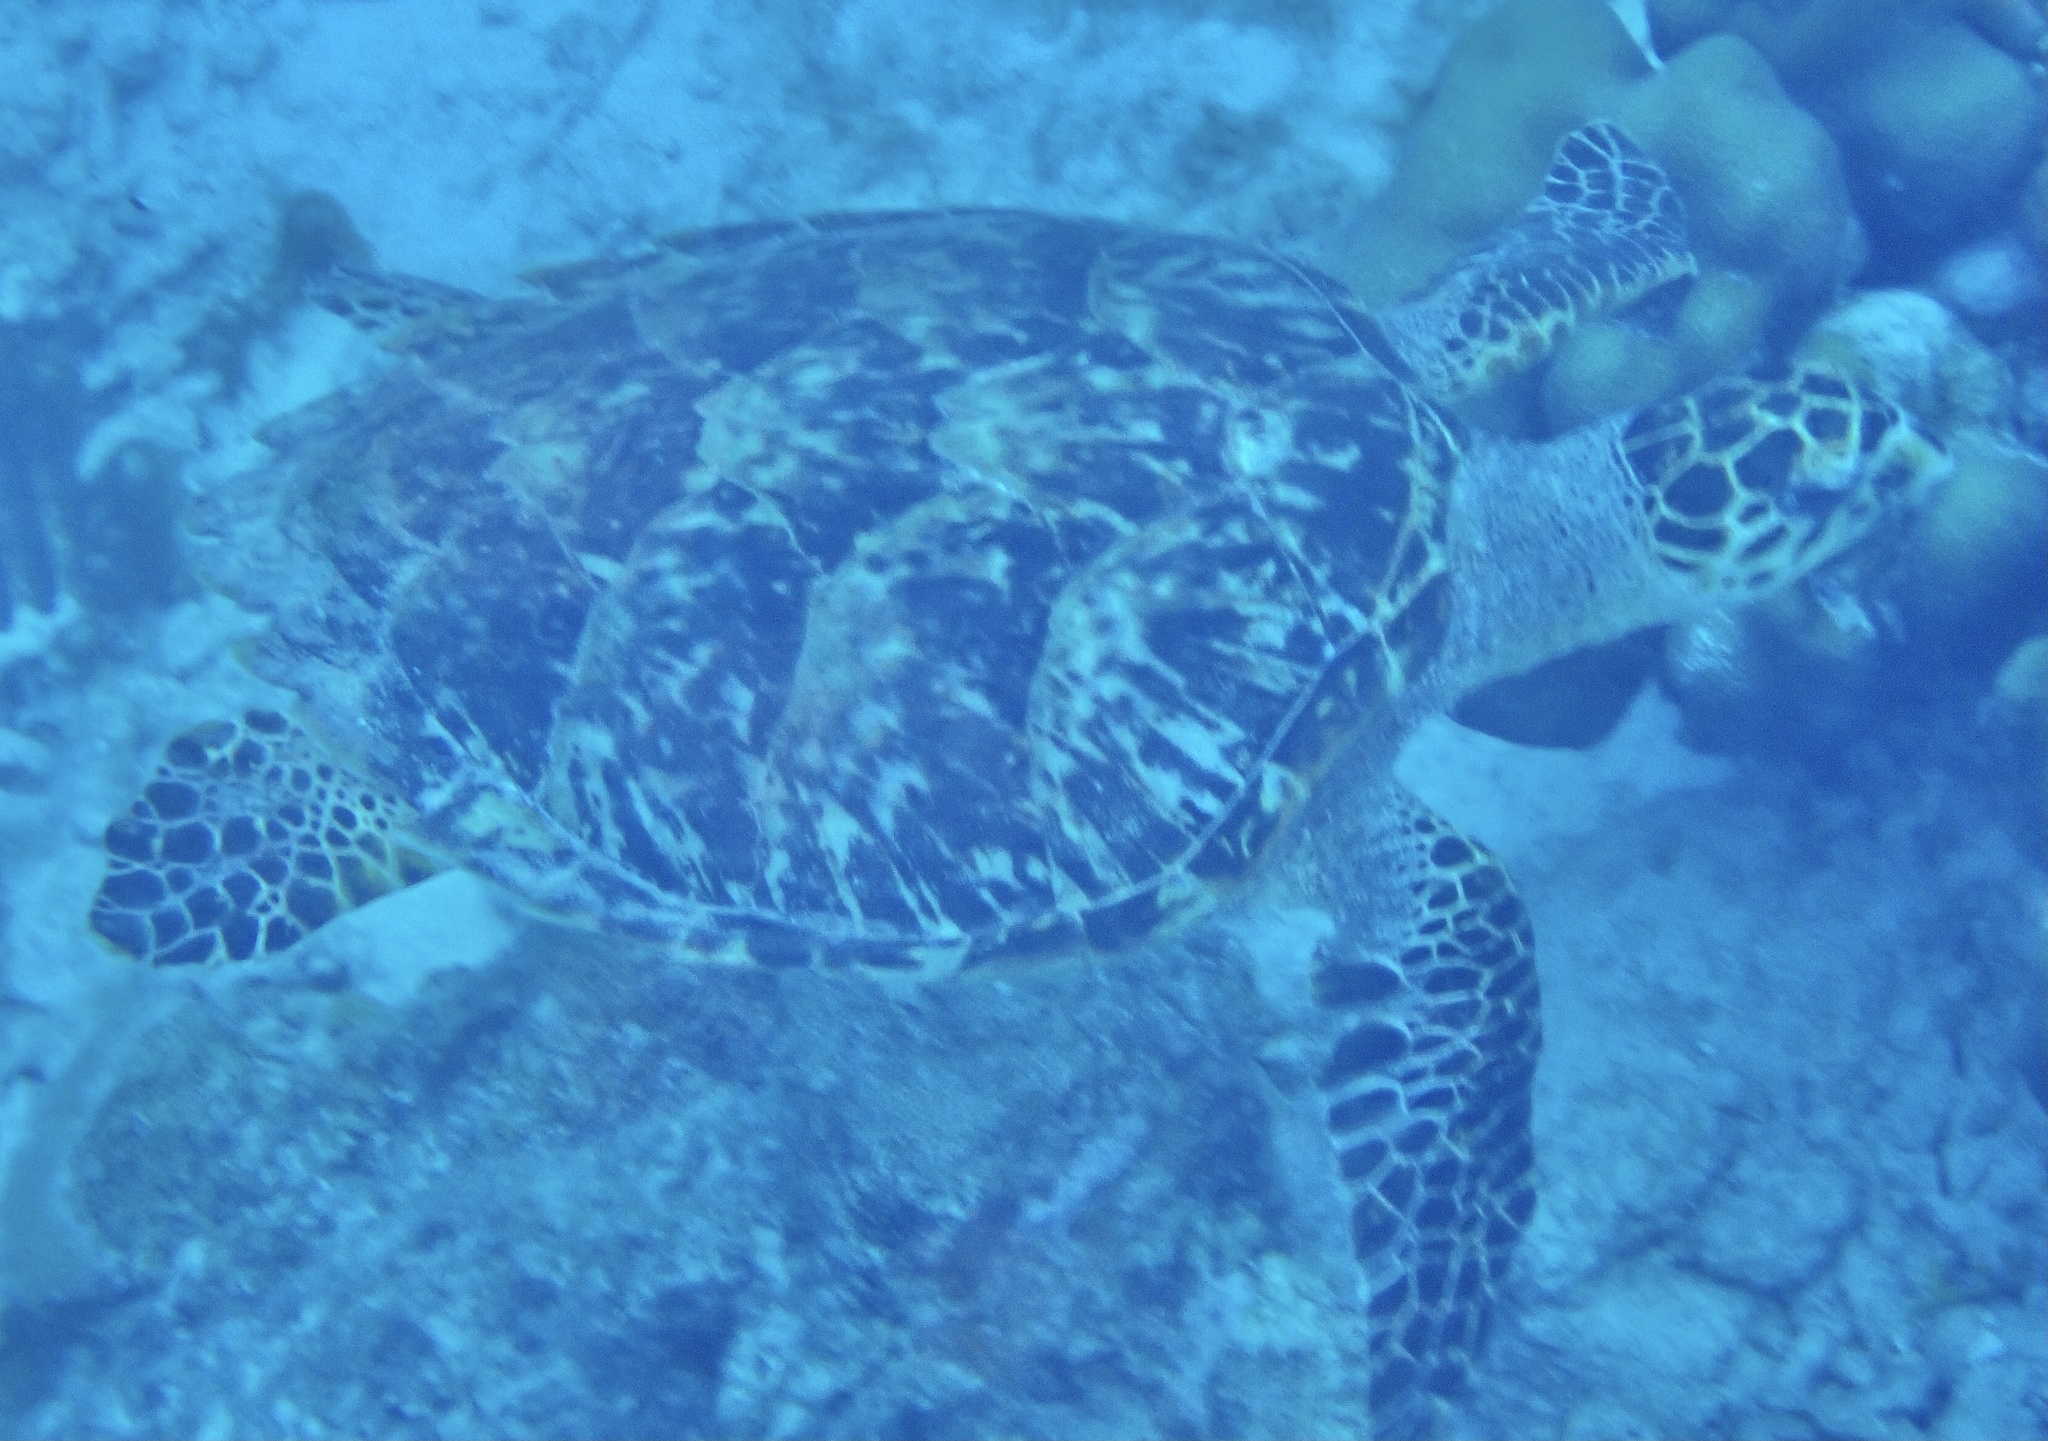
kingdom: Animalia
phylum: Chordata
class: Testudines
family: Cheloniidae
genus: Eretmochelys
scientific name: Eretmochelys imbricata
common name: Hawksbill turtle
